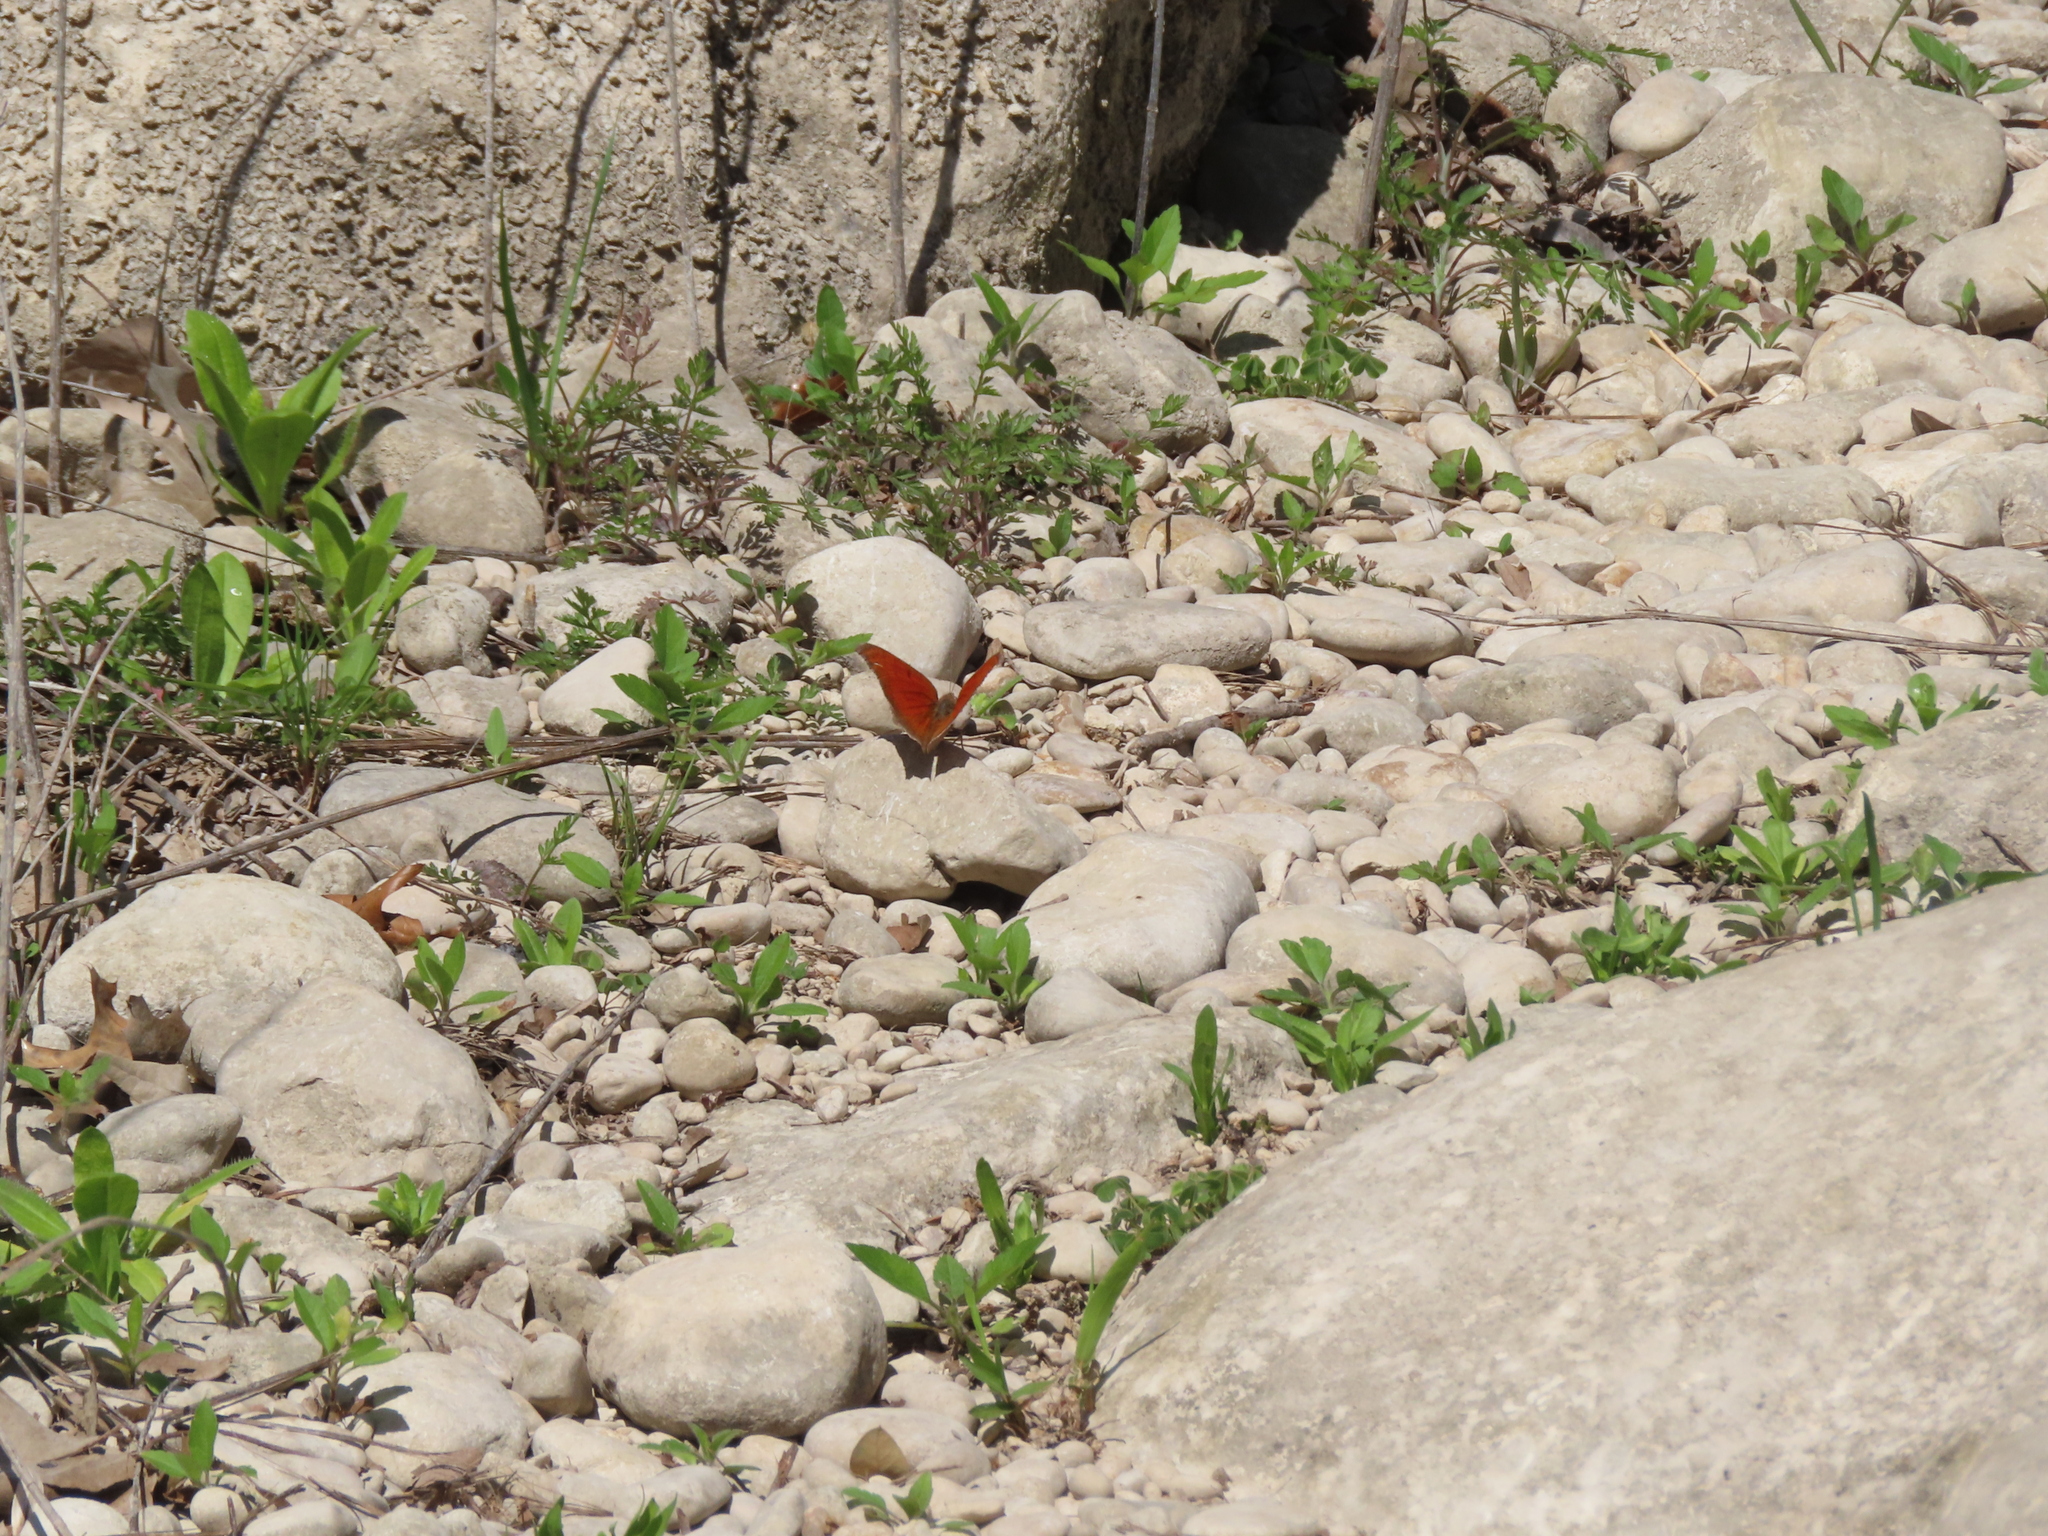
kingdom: Animalia
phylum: Arthropoda
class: Insecta
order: Lepidoptera
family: Nymphalidae
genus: Anaea
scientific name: Anaea andria
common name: Goatweed leafwing
